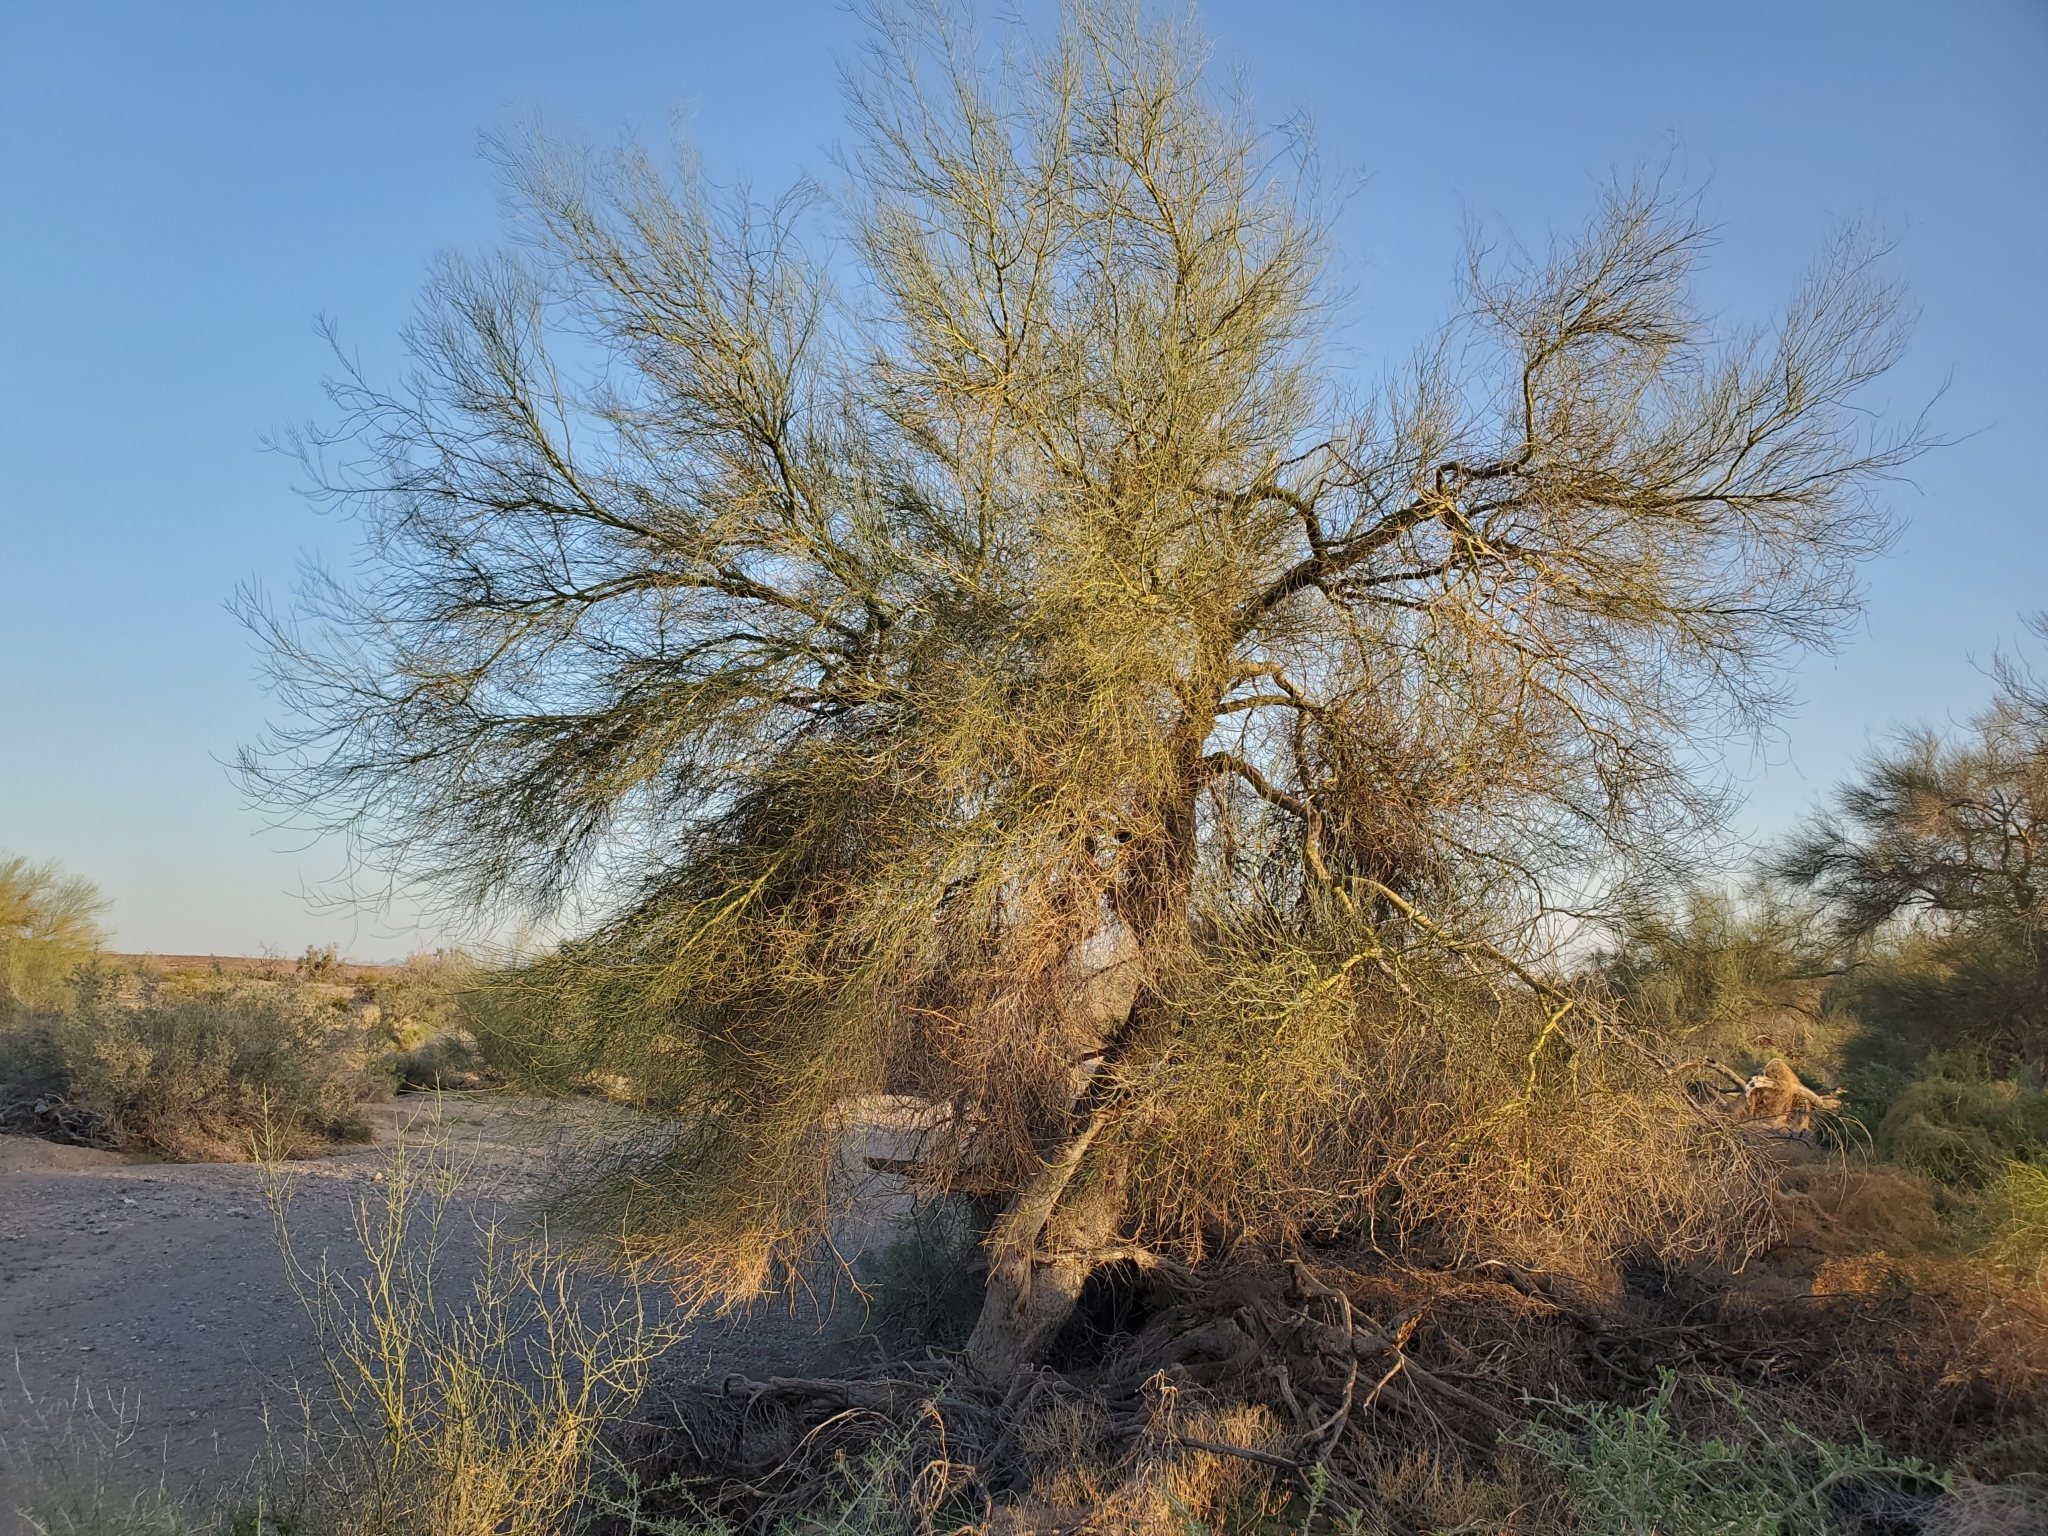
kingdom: Plantae
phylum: Tracheophyta
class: Magnoliopsida
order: Fabales
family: Fabaceae
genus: Parkinsonia
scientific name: Parkinsonia florida
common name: Blue paloverde
